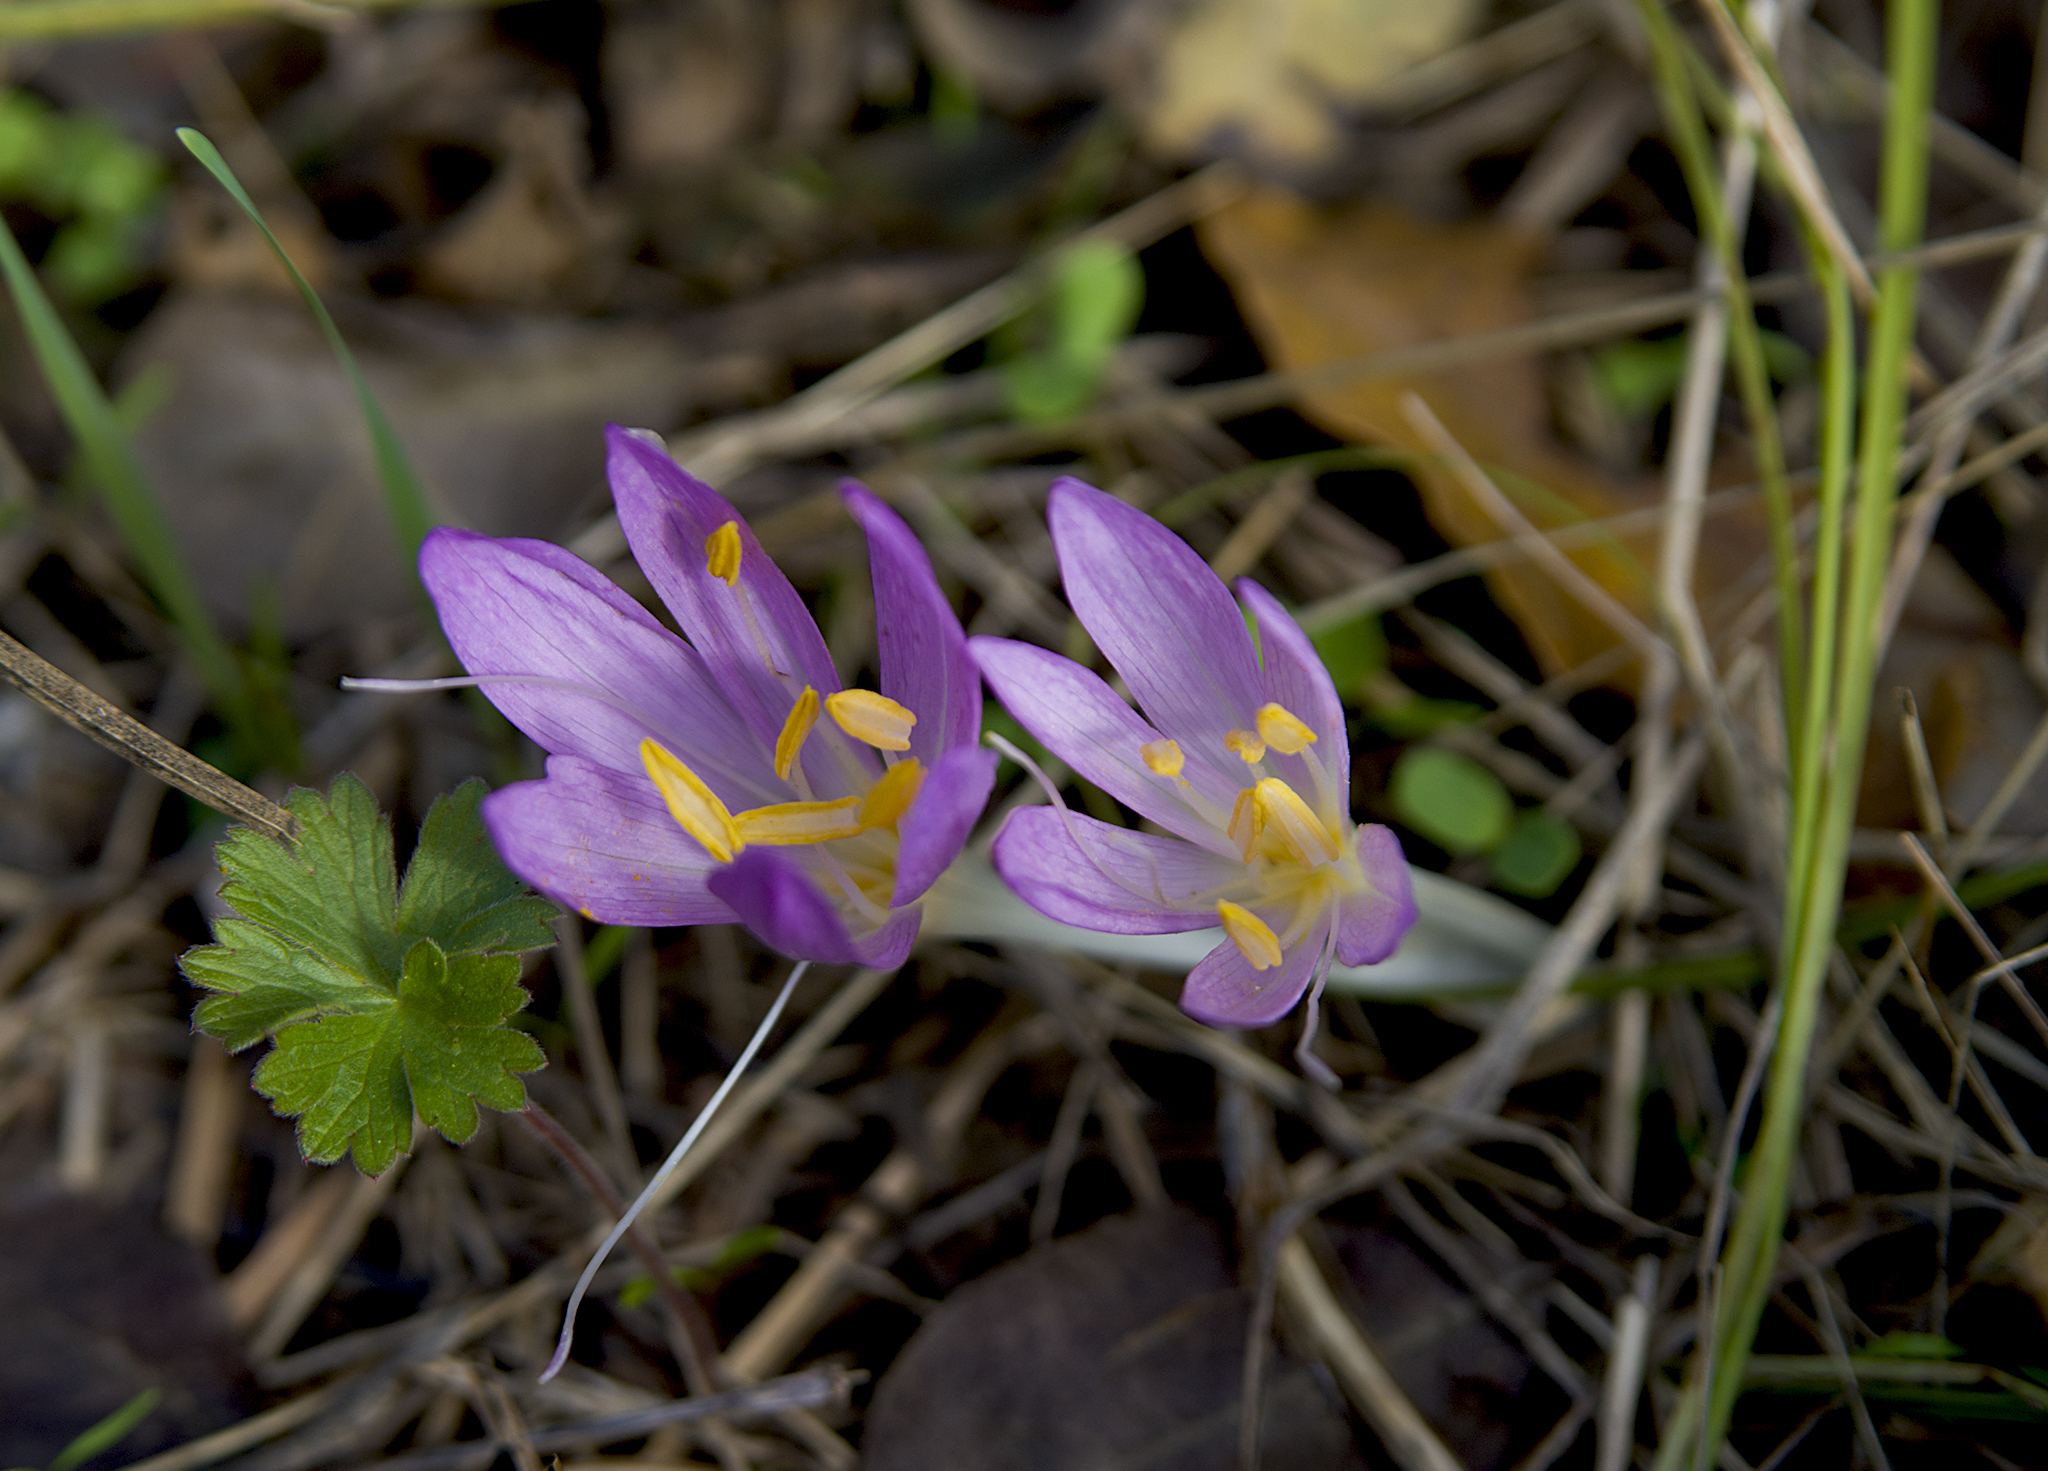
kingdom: Plantae
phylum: Tracheophyta
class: Liliopsida
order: Liliales
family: Colchicaceae
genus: Colchicum
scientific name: Colchicum autumnale
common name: Autumn crocus
